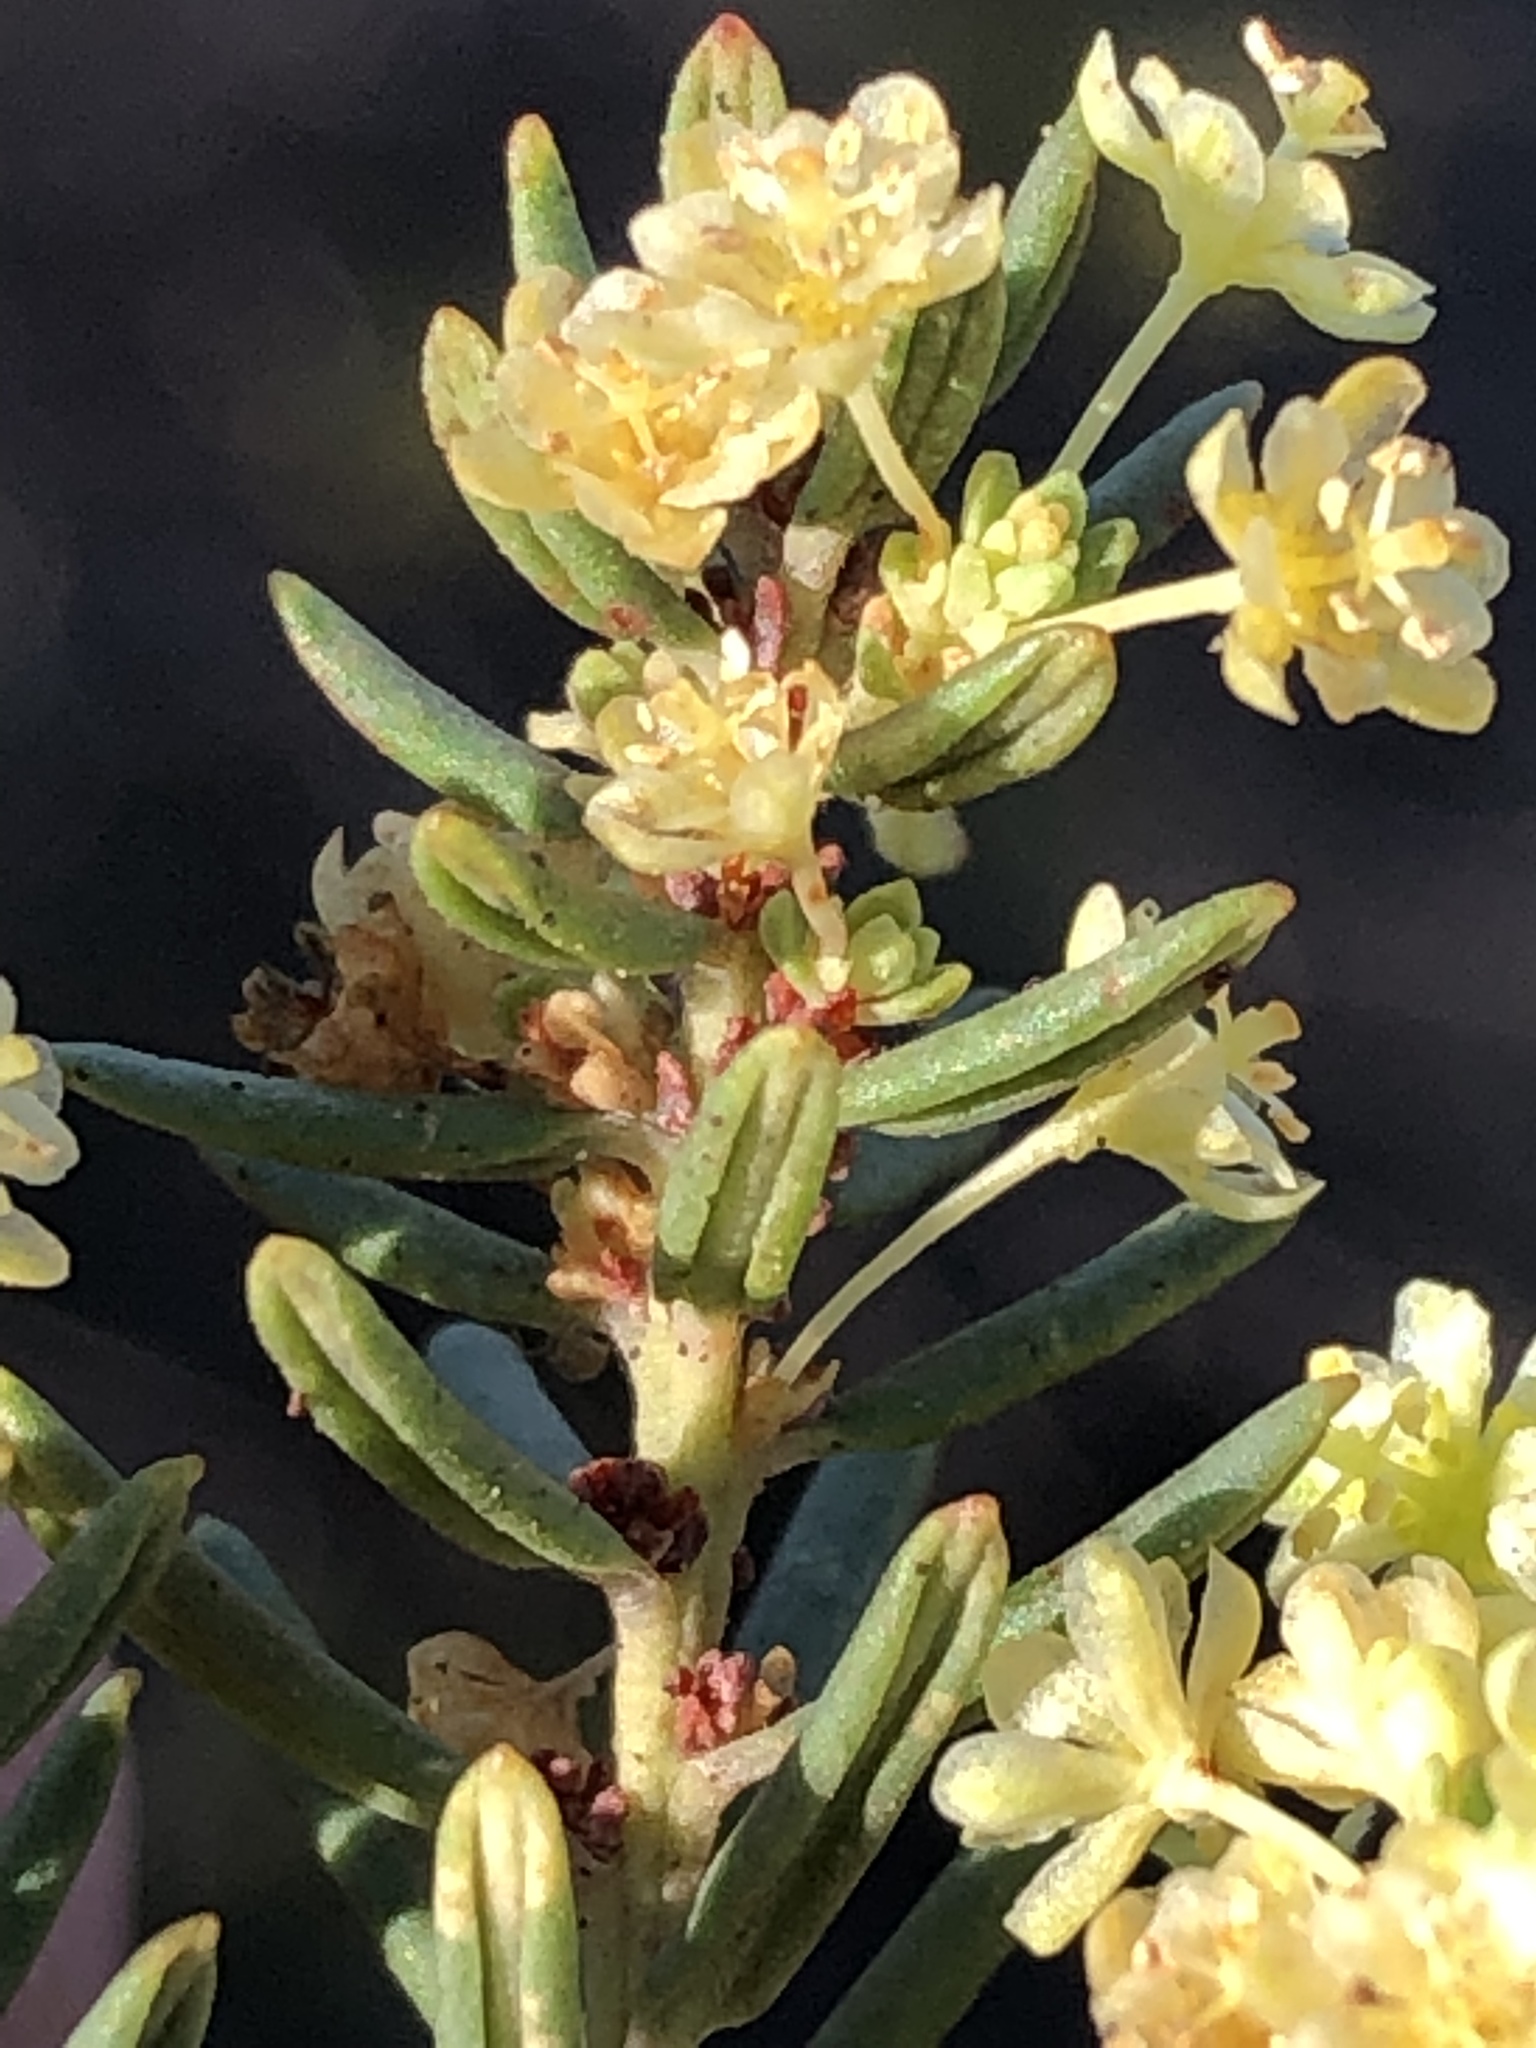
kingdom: Plantae
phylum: Tracheophyta
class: Magnoliopsida
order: Malpighiales
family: Peraceae
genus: Clutia
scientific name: Clutia polifolia
